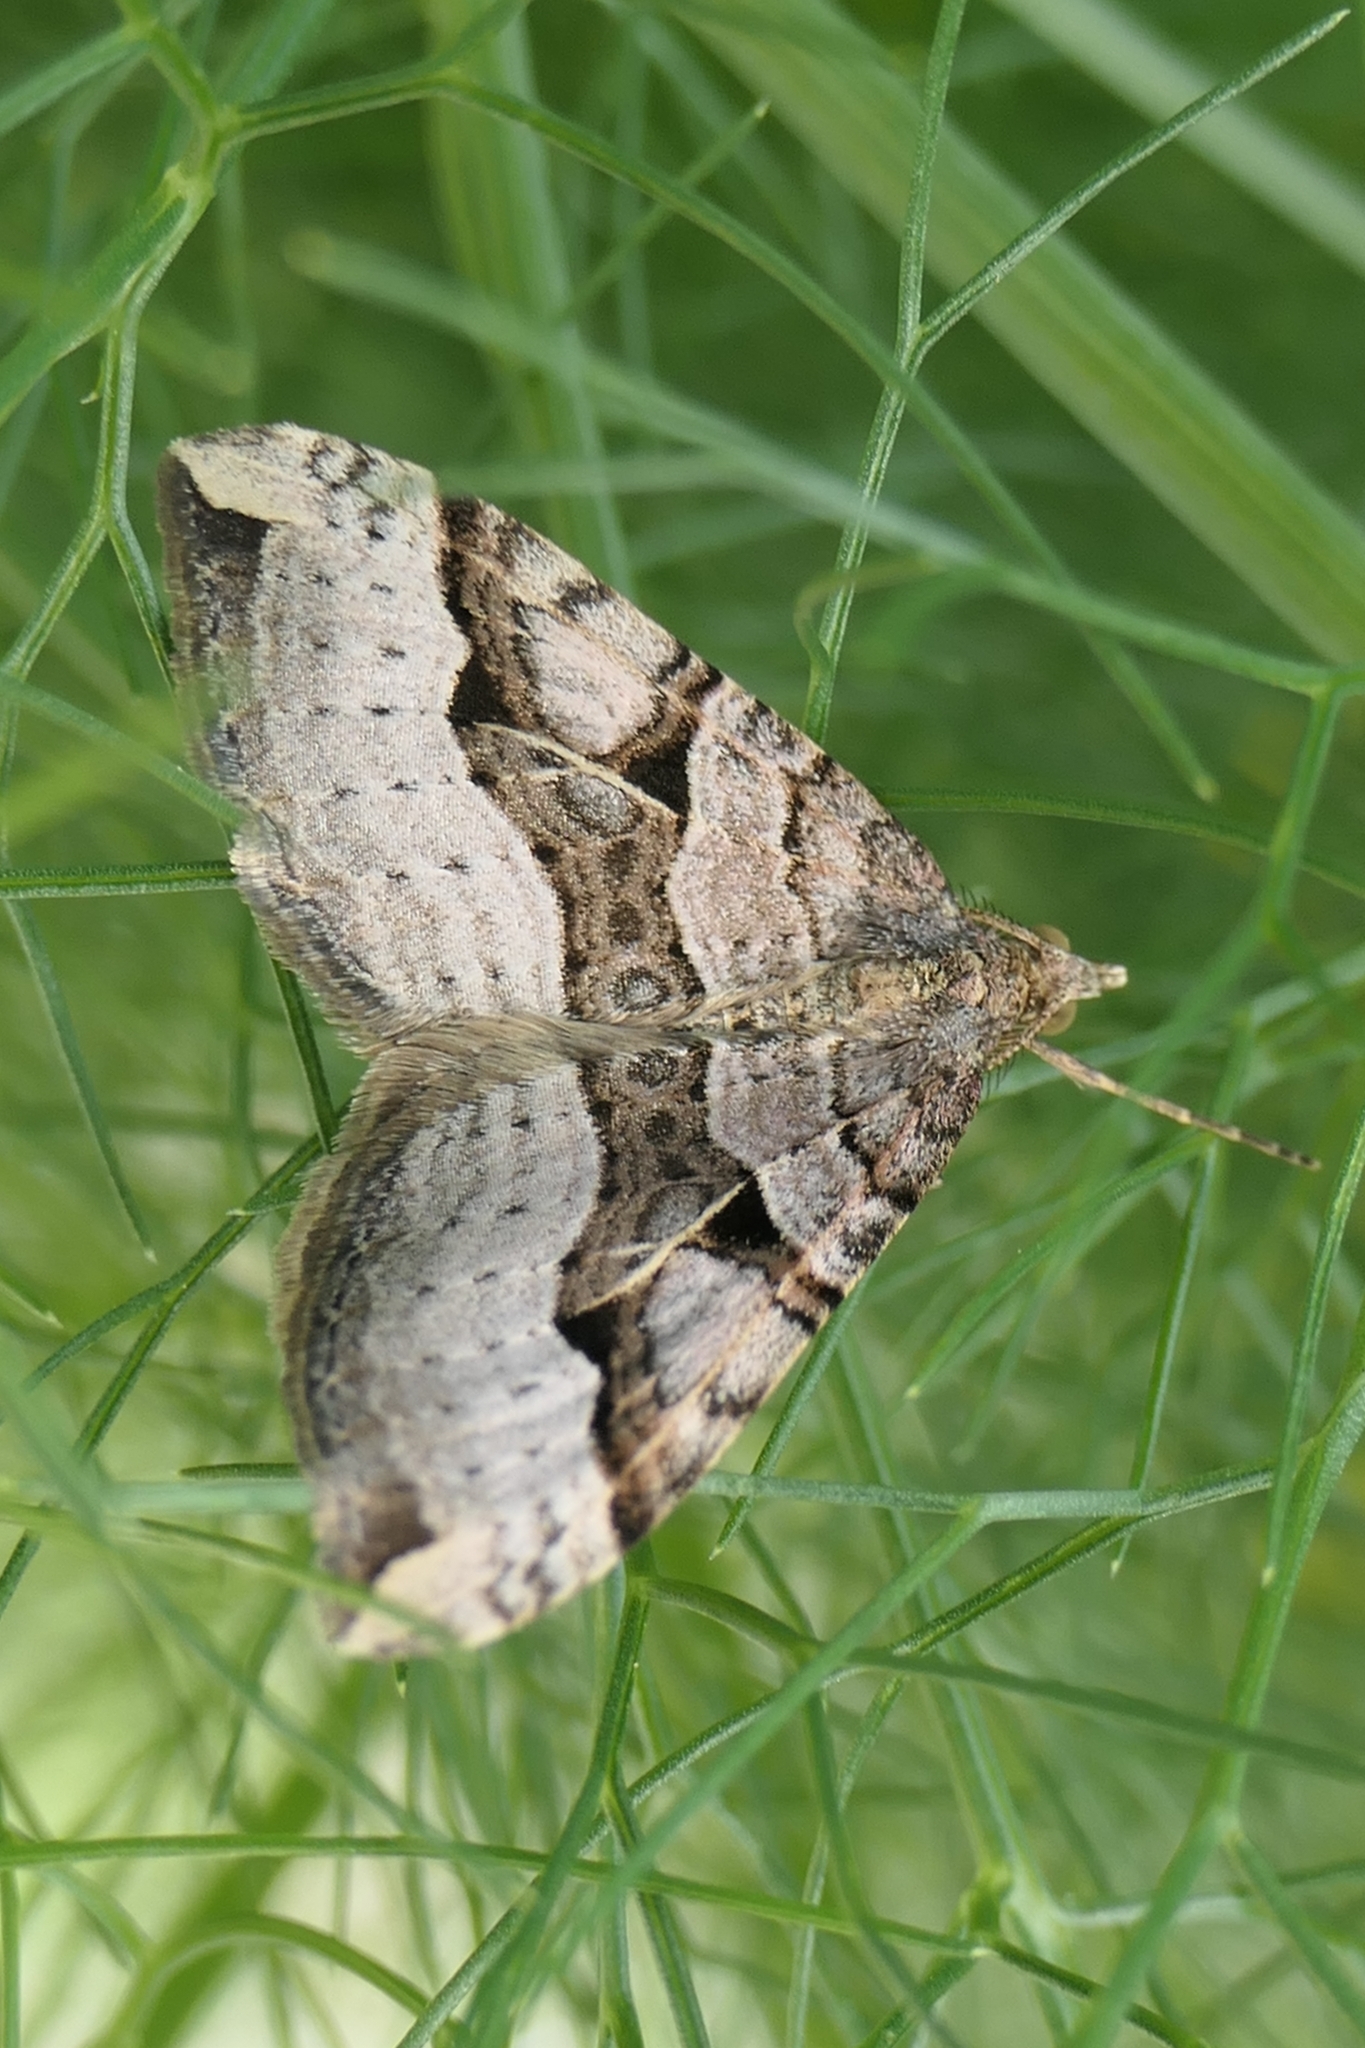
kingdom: Animalia
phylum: Arthropoda
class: Insecta
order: Lepidoptera
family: Geometridae
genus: Xanthorhoe
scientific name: Xanthorhoe semifissata
